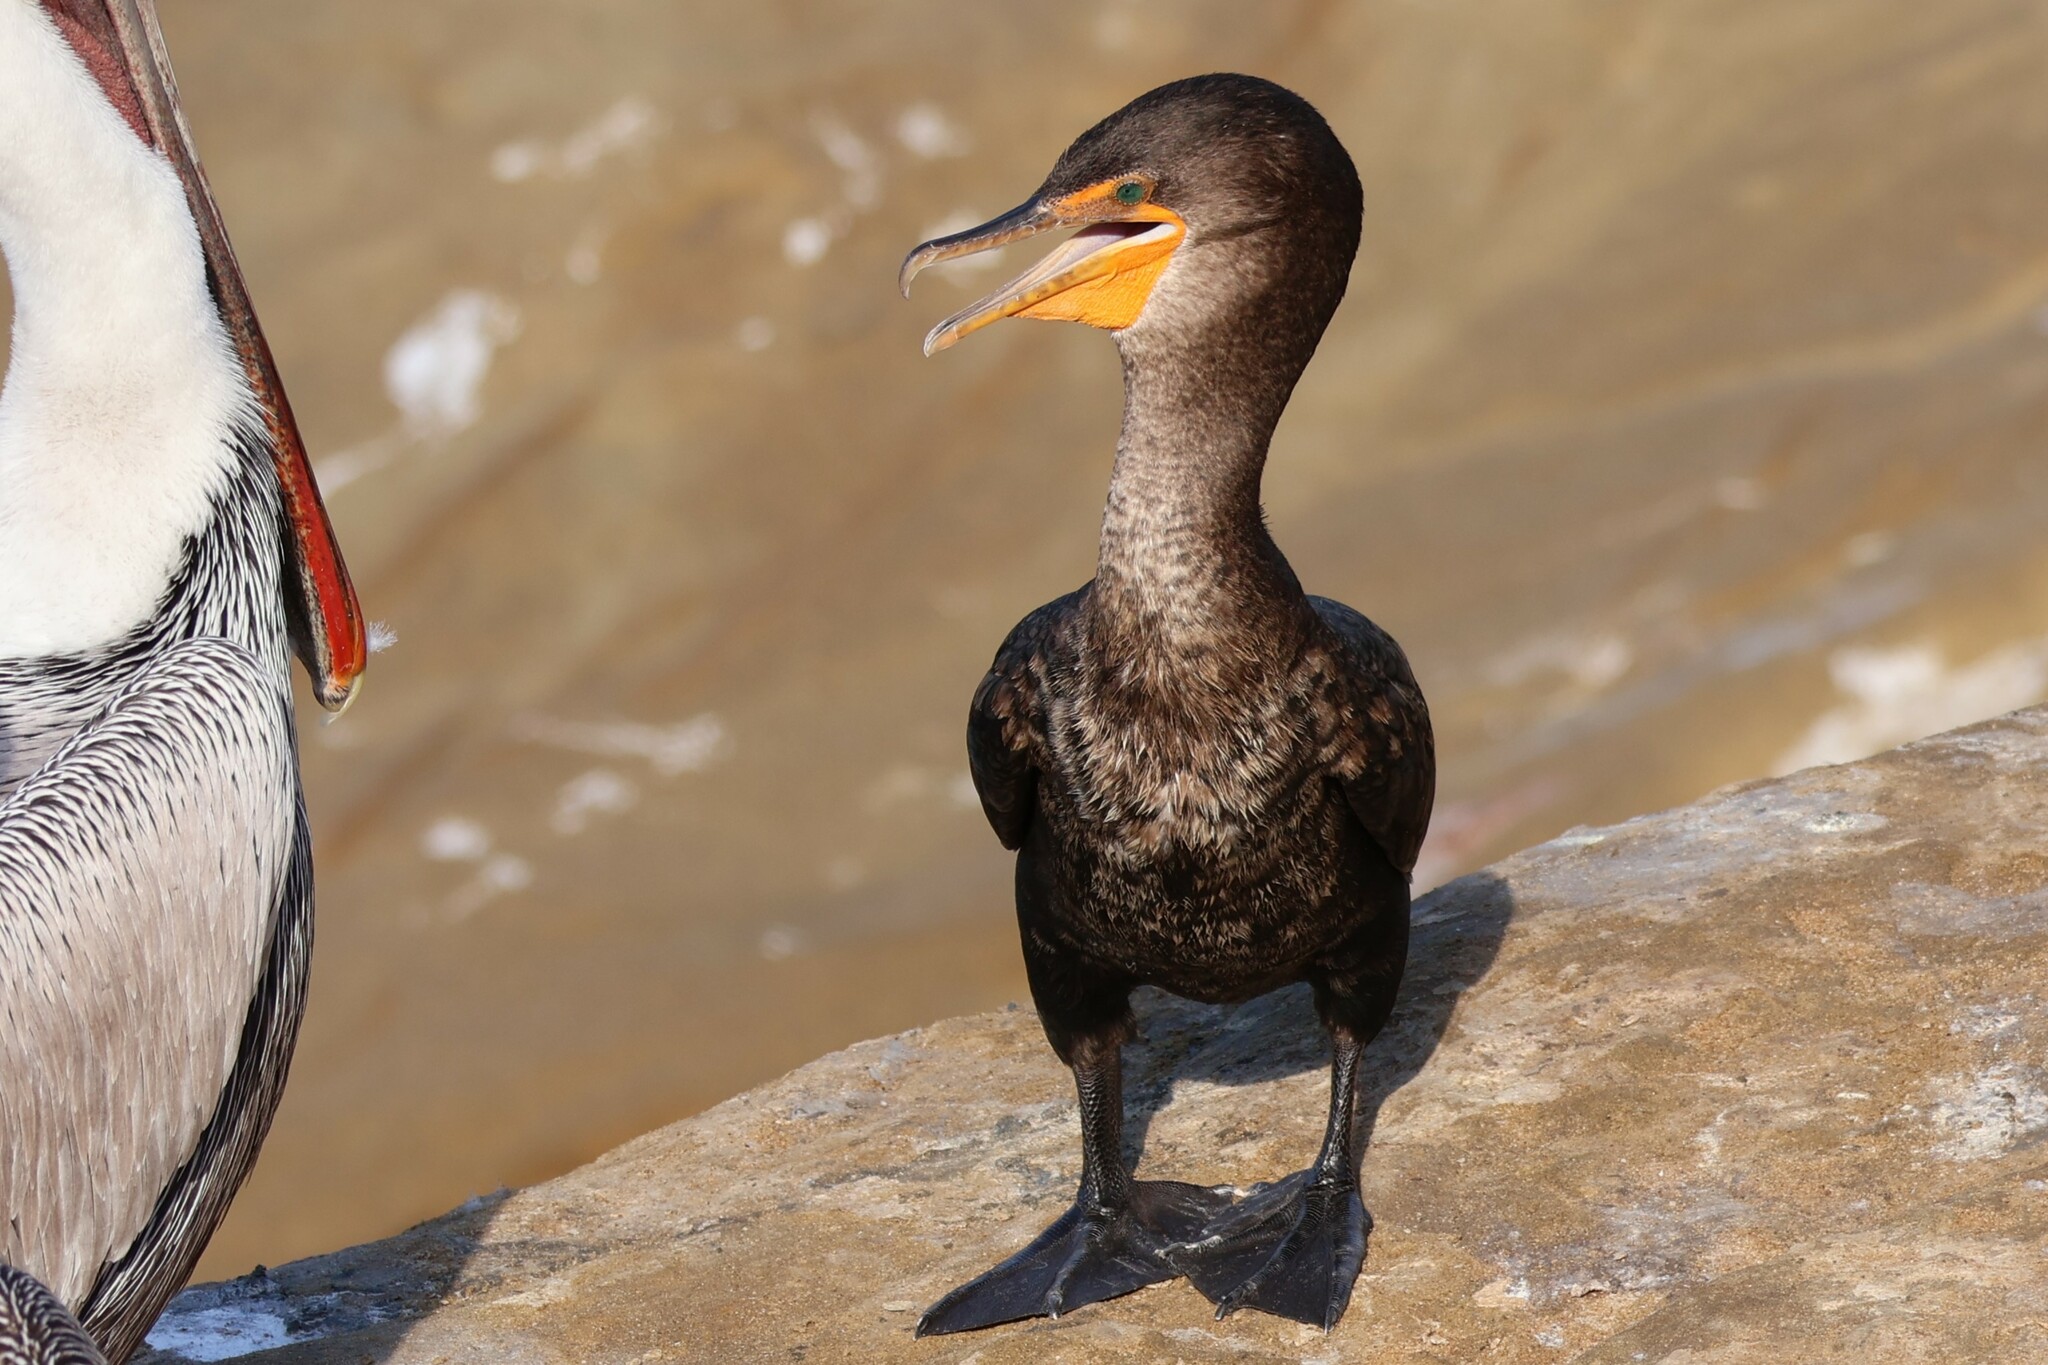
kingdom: Animalia
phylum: Chordata
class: Aves
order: Suliformes
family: Phalacrocoracidae
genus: Phalacrocorax
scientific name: Phalacrocorax auritus
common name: Double-crested cormorant
